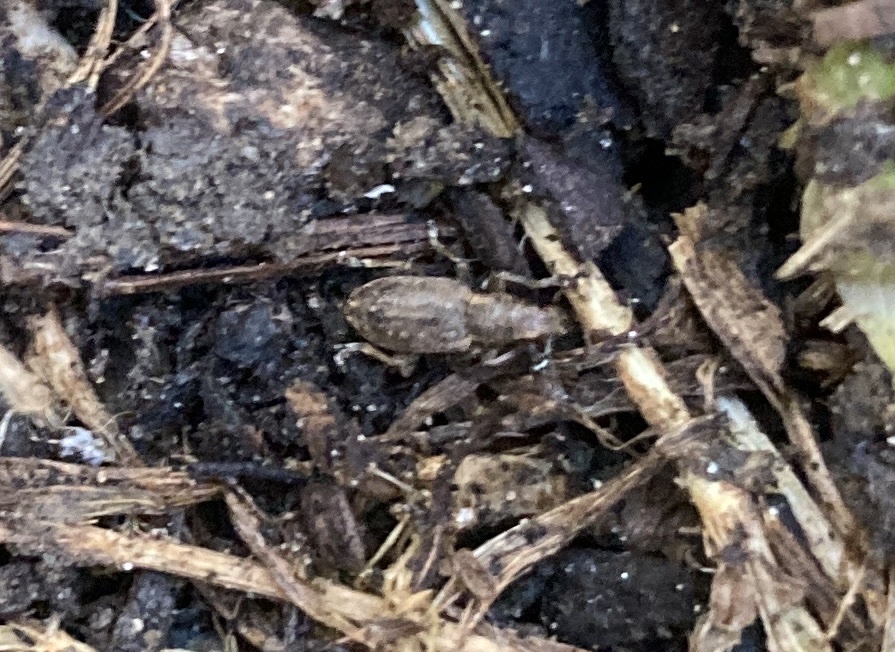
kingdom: Animalia
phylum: Arthropoda
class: Insecta
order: Coleoptera
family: Curculionidae
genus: Sitona
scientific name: Sitona obsoletus
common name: Weevil
